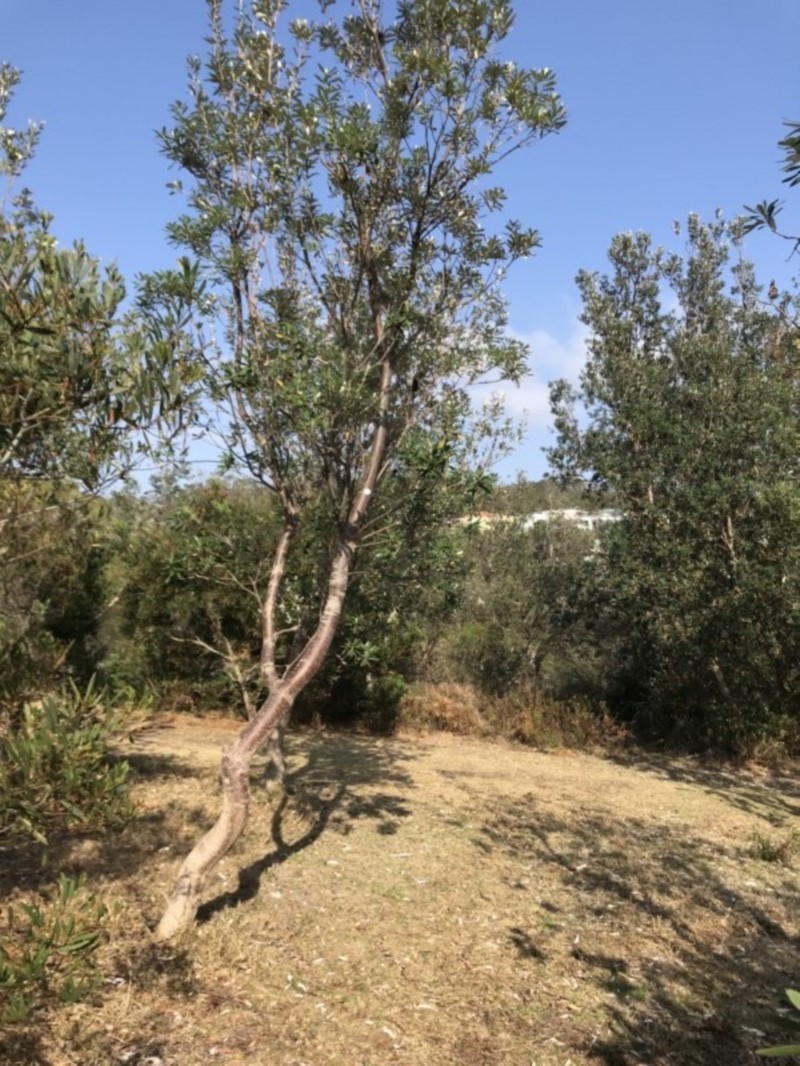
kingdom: Plantae
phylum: Tracheophyta
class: Magnoliopsida
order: Proteales
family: Proteaceae
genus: Banksia
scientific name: Banksia integrifolia
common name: White-honeysuckle
